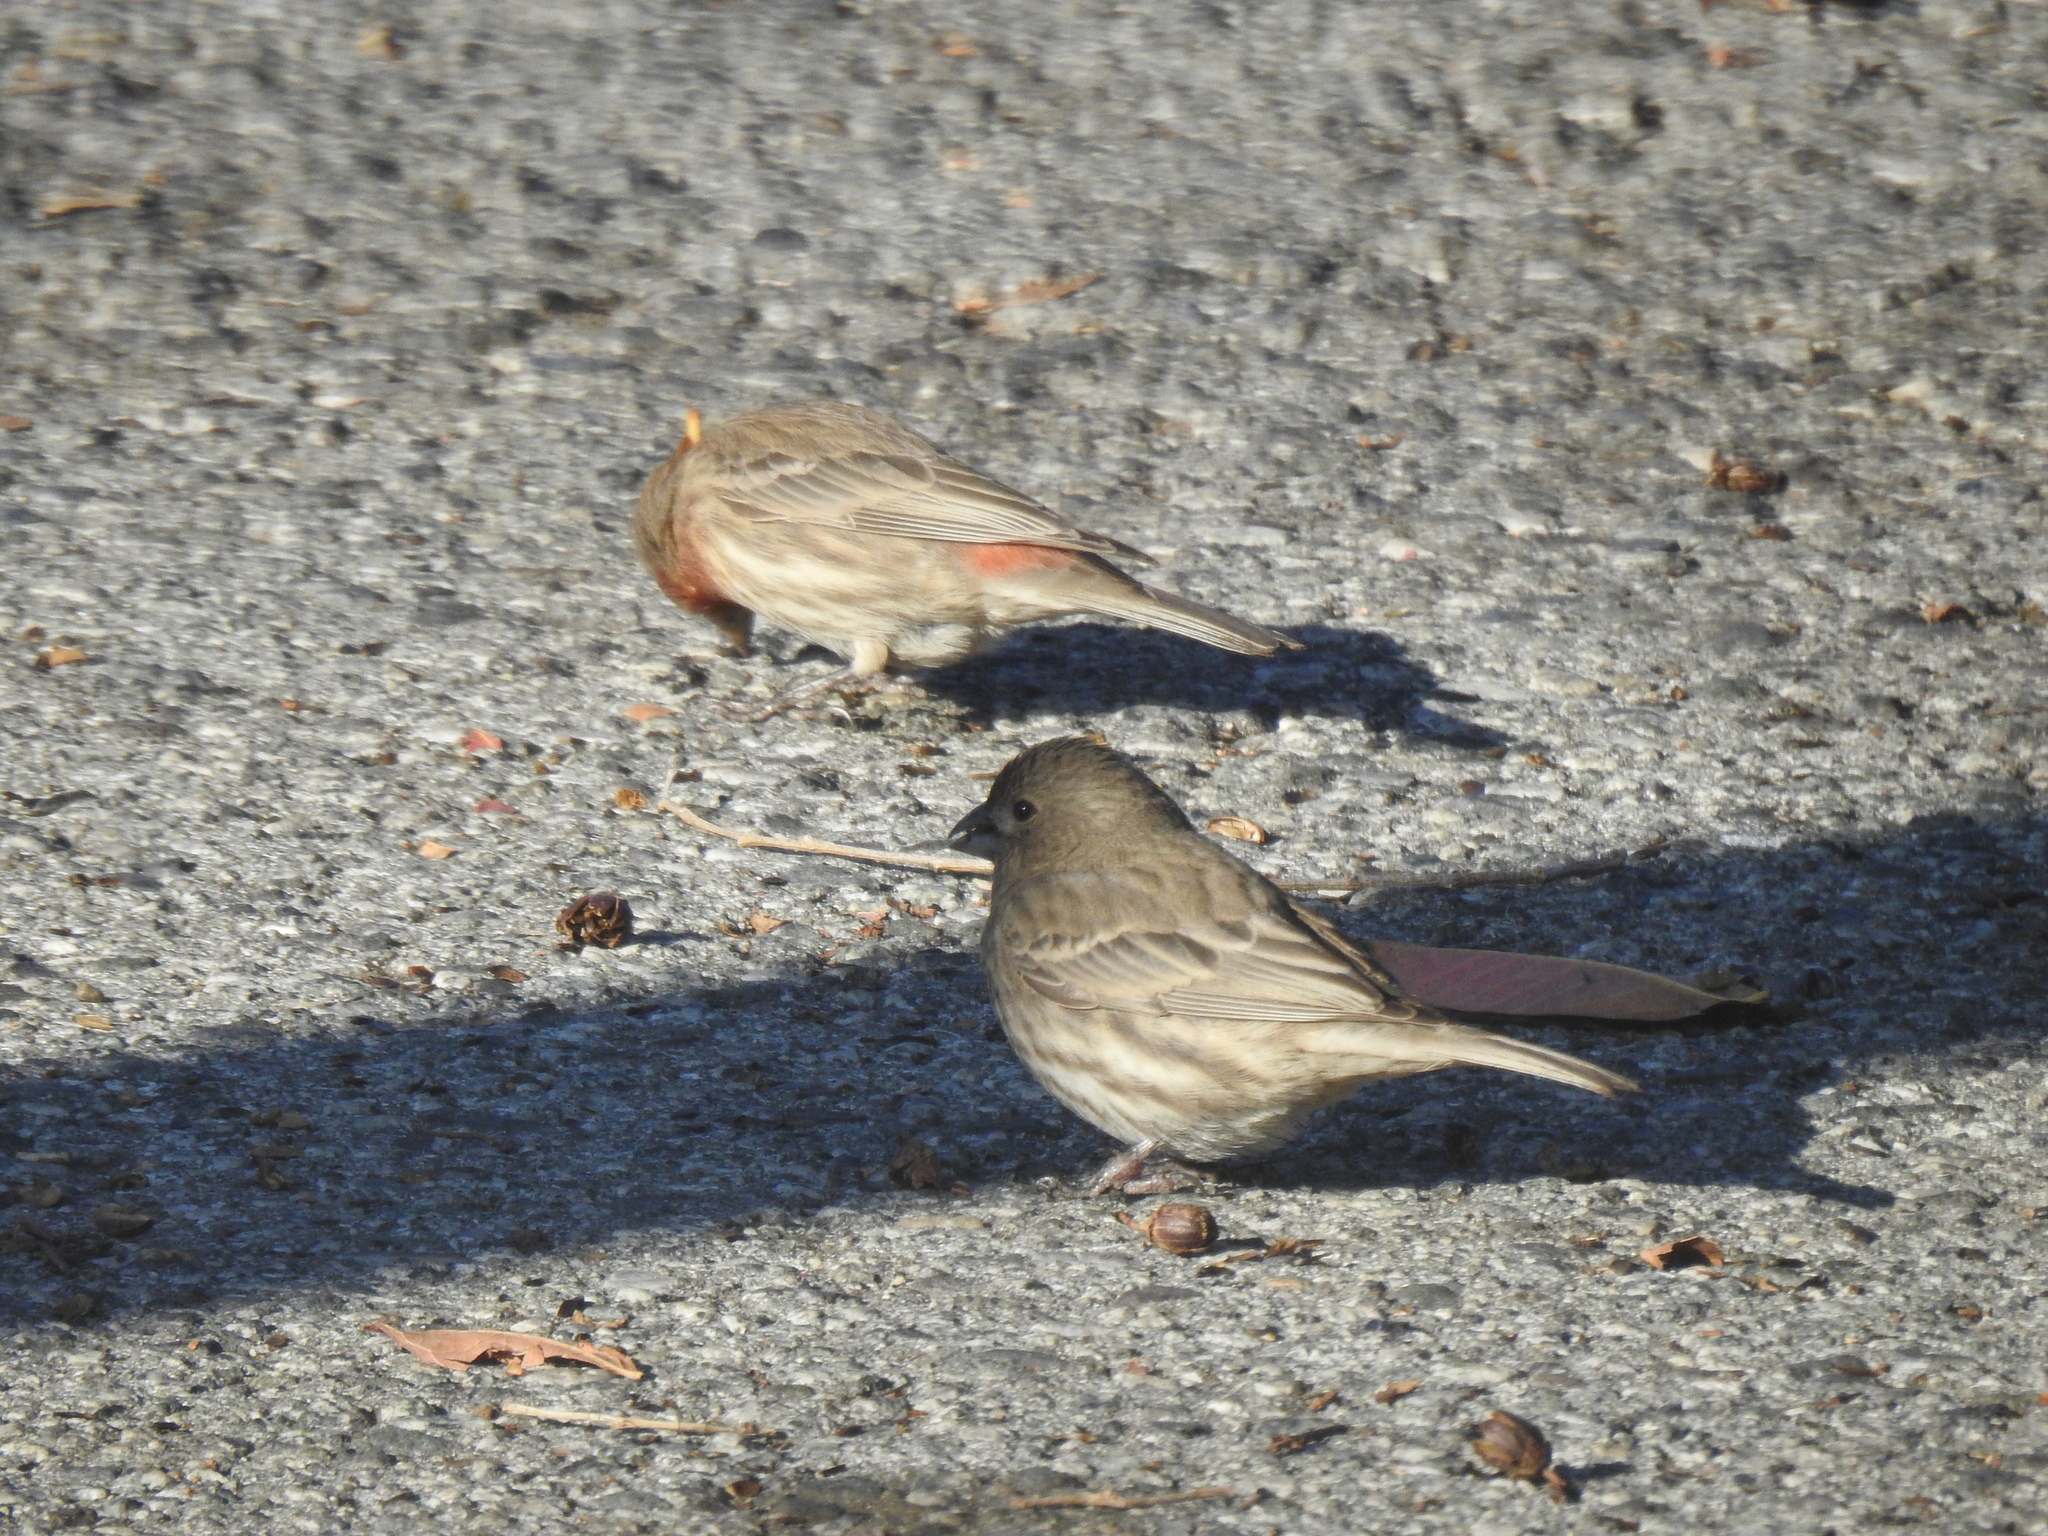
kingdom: Animalia
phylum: Chordata
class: Aves
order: Passeriformes
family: Fringillidae
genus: Haemorhous
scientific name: Haemorhous mexicanus
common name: House finch
